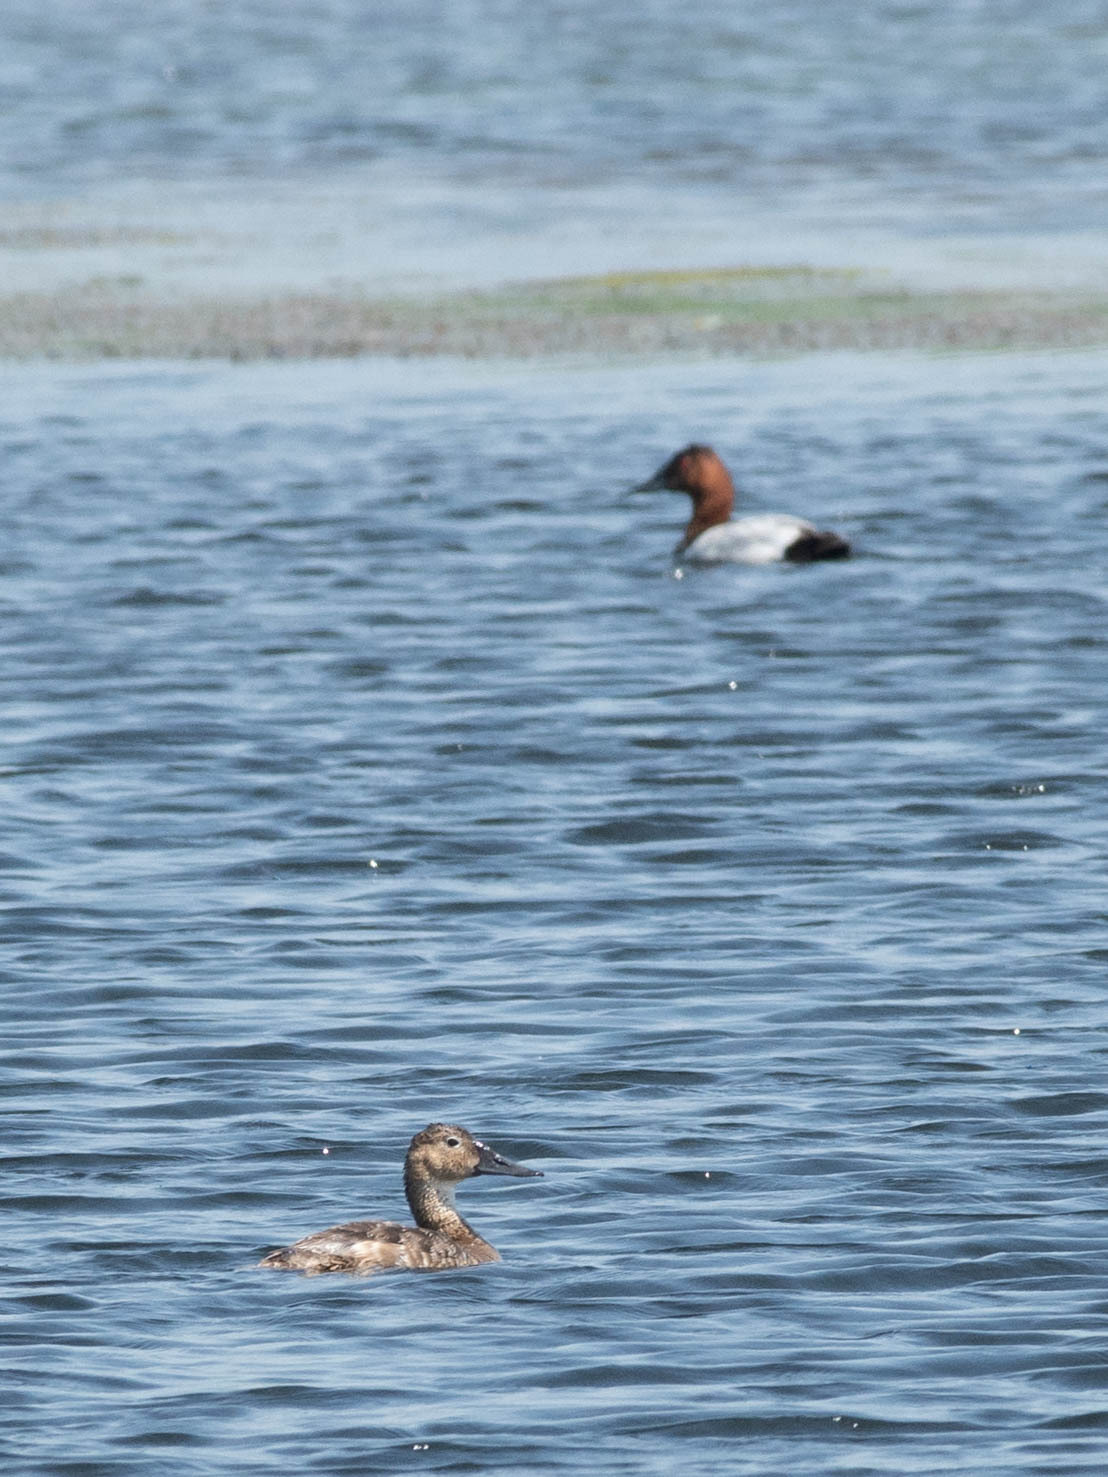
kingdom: Animalia
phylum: Chordata
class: Aves
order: Anseriformes
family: Anatidae
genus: Aythya
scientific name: Aythya valisineria
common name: Canvasback
